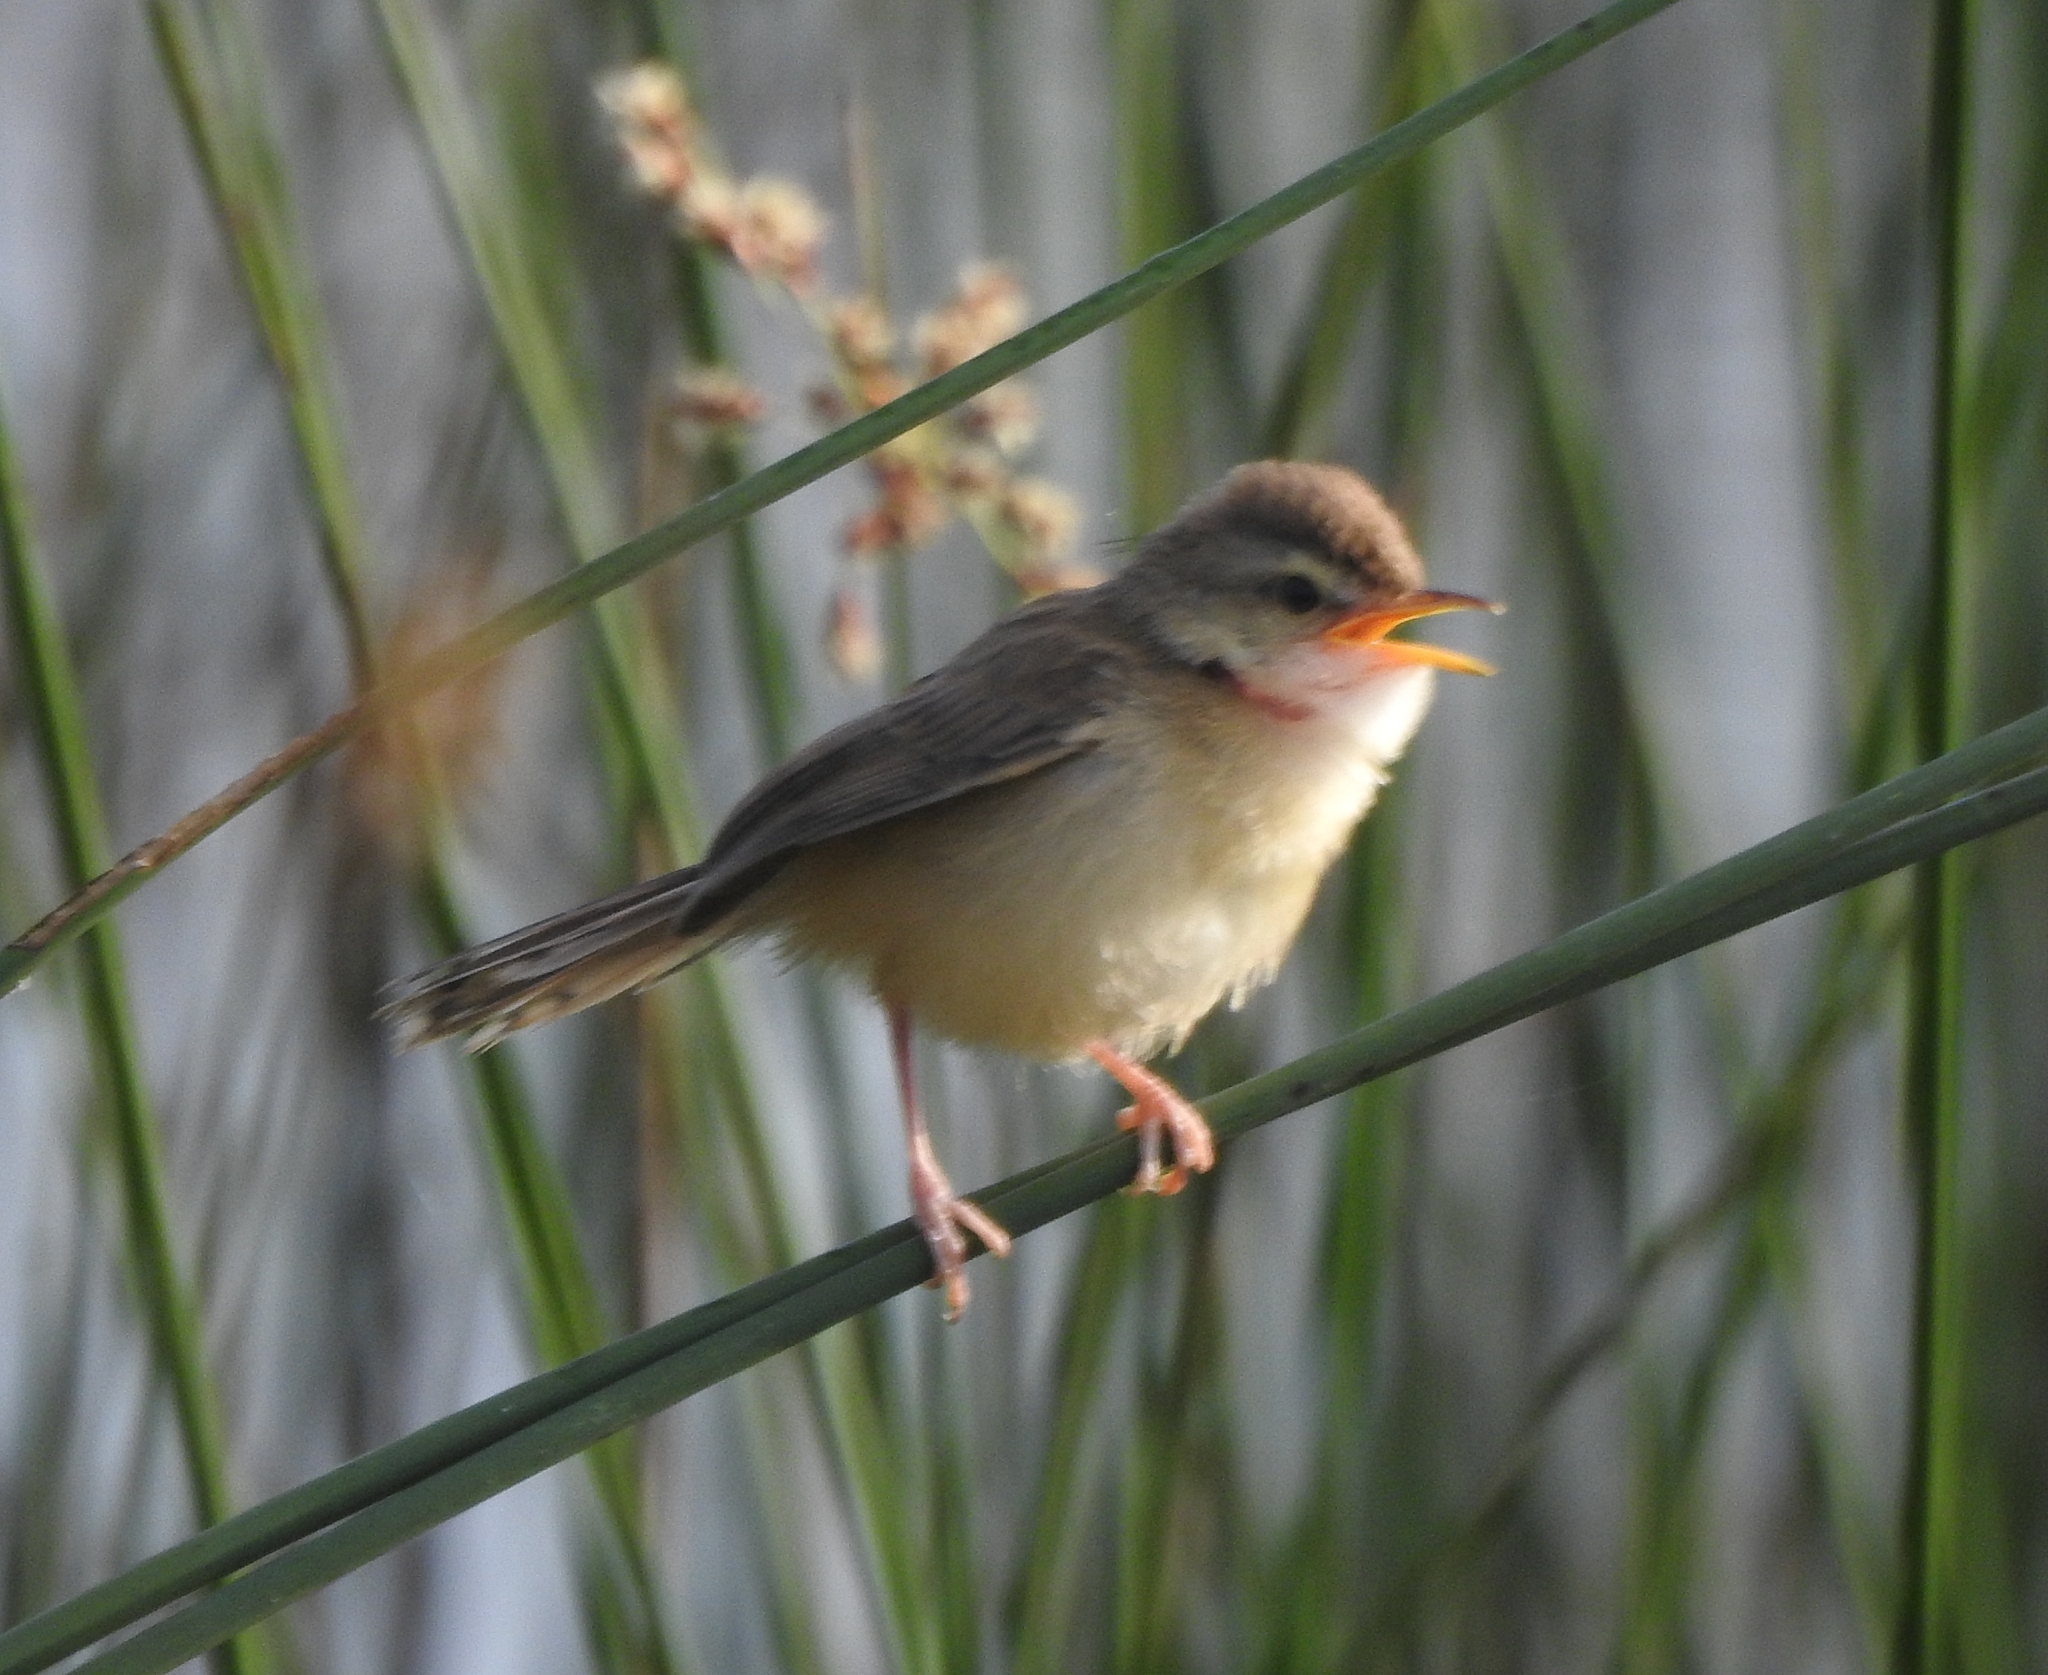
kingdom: Animalia
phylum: Chordata
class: Aves
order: Passeriformes
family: Cisticolidae
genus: Prinia
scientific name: Prinia inornata
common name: Plain prinia
